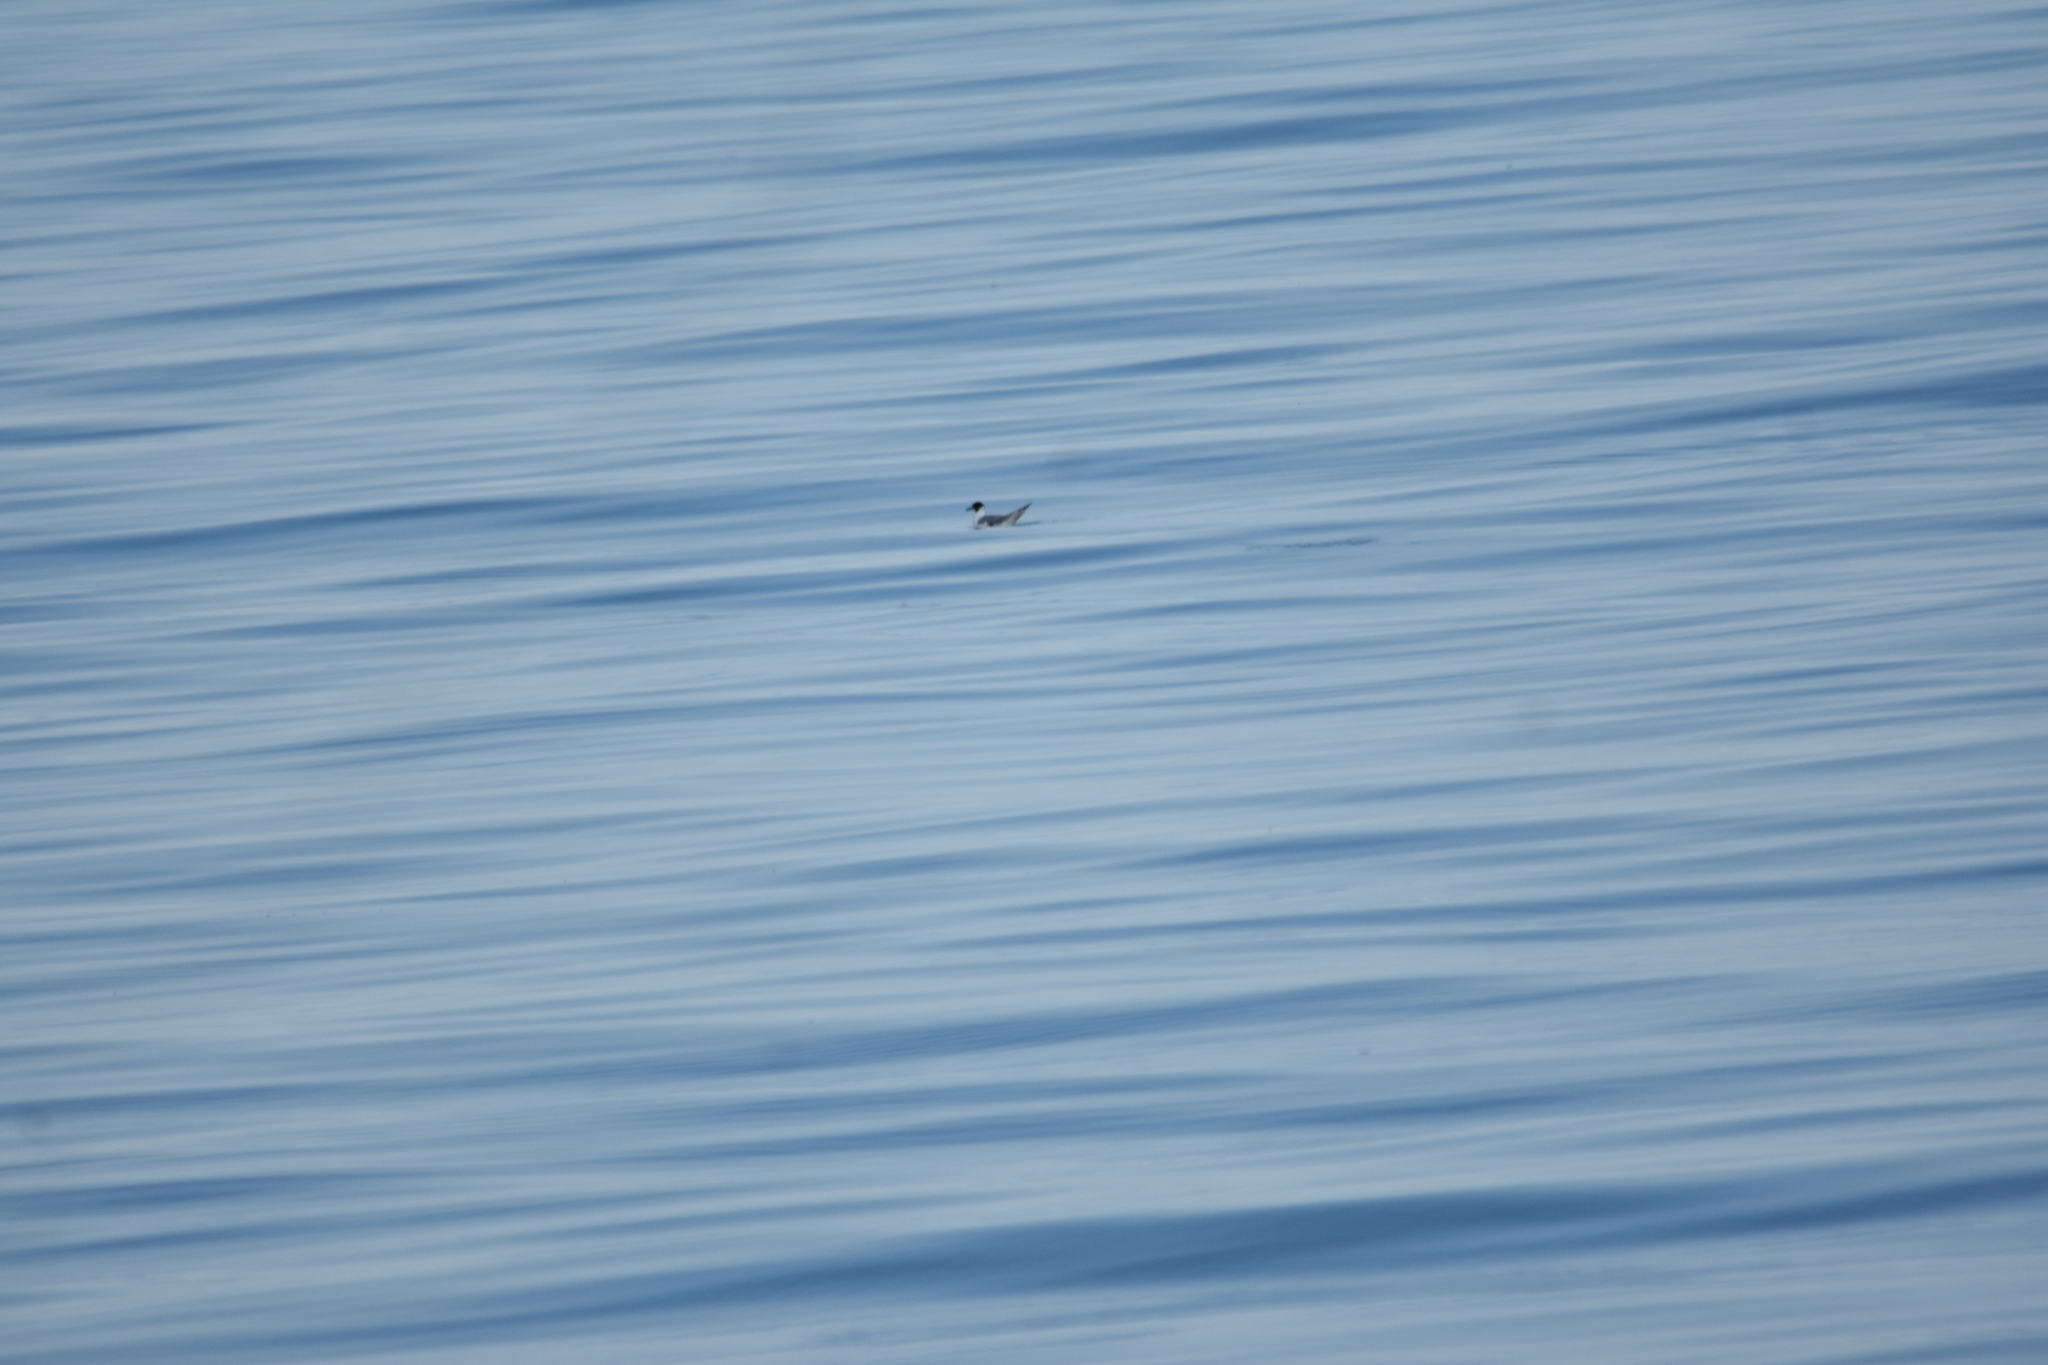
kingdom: Animalia
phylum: Chordata
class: Aves
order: Charadriiformes
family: Laridae
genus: Chroicocephalus
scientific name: Chroicocephalus philadelphia
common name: Bonaparte's gull
